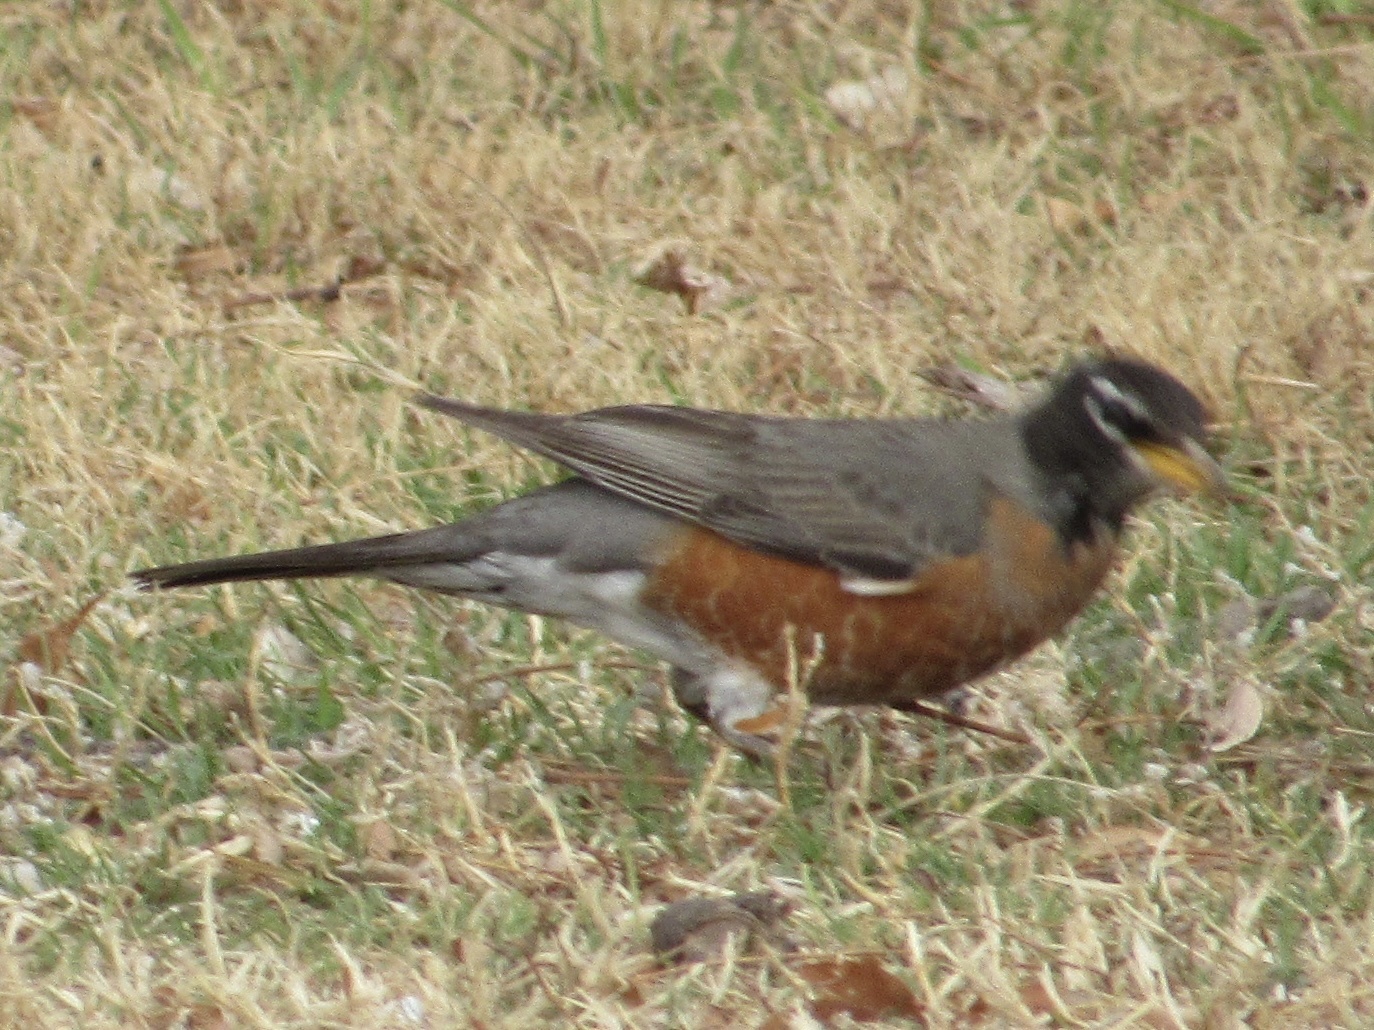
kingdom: Animalia
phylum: Chordata
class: Aves
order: Passeriformes
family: Turdidae
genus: Turdus
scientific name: Turdus migratorius
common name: American robin
